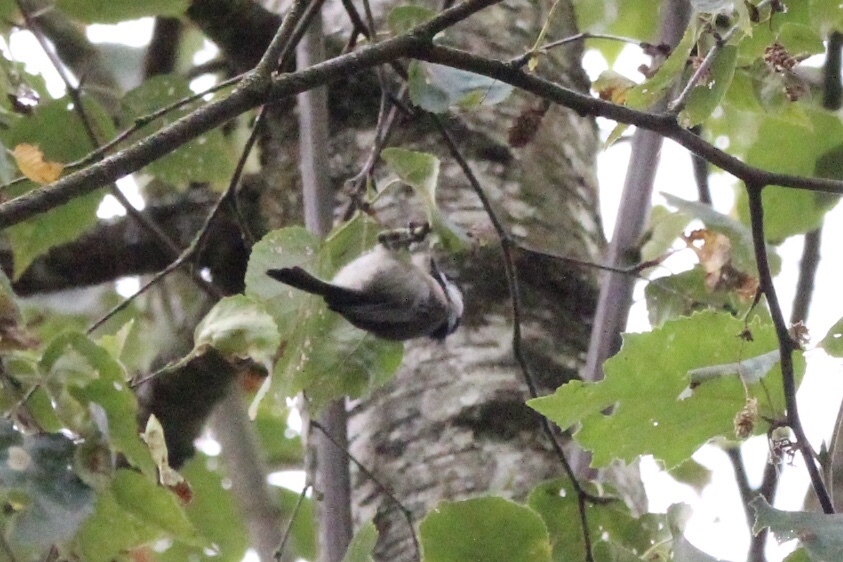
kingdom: Animalia
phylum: Chordata
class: Aves
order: Passeriformes
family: Paridae
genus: Poecile
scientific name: Poecile atricapillus
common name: Black-capped chickadee
